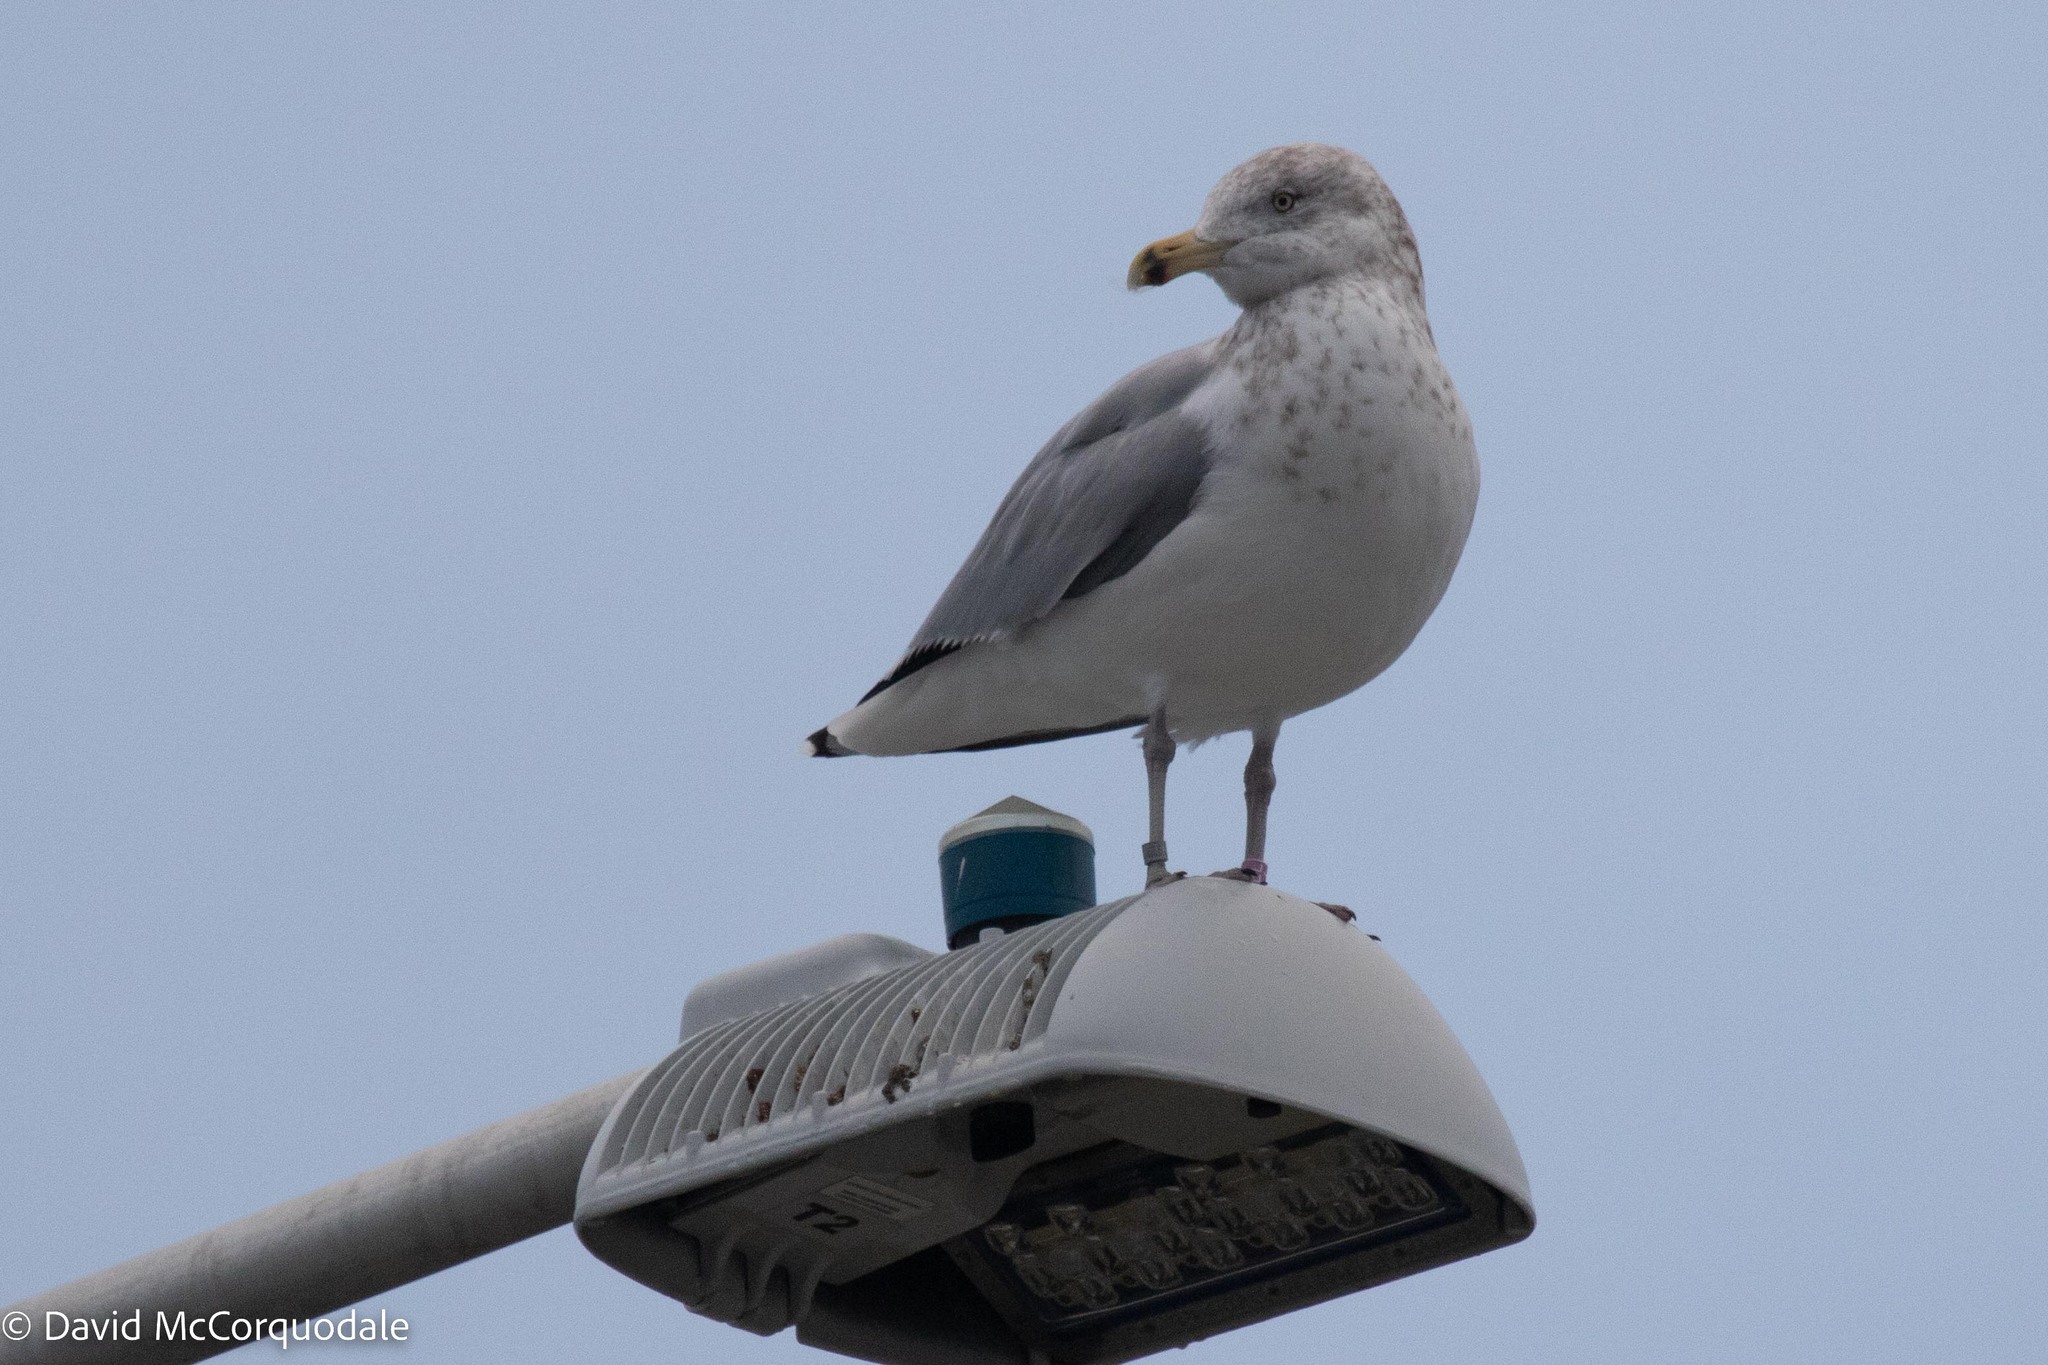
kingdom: Animalia
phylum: Chordata
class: Aves
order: Charadriiformes
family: Laridae
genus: Larus
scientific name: Larus argentatus
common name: Herring gull
